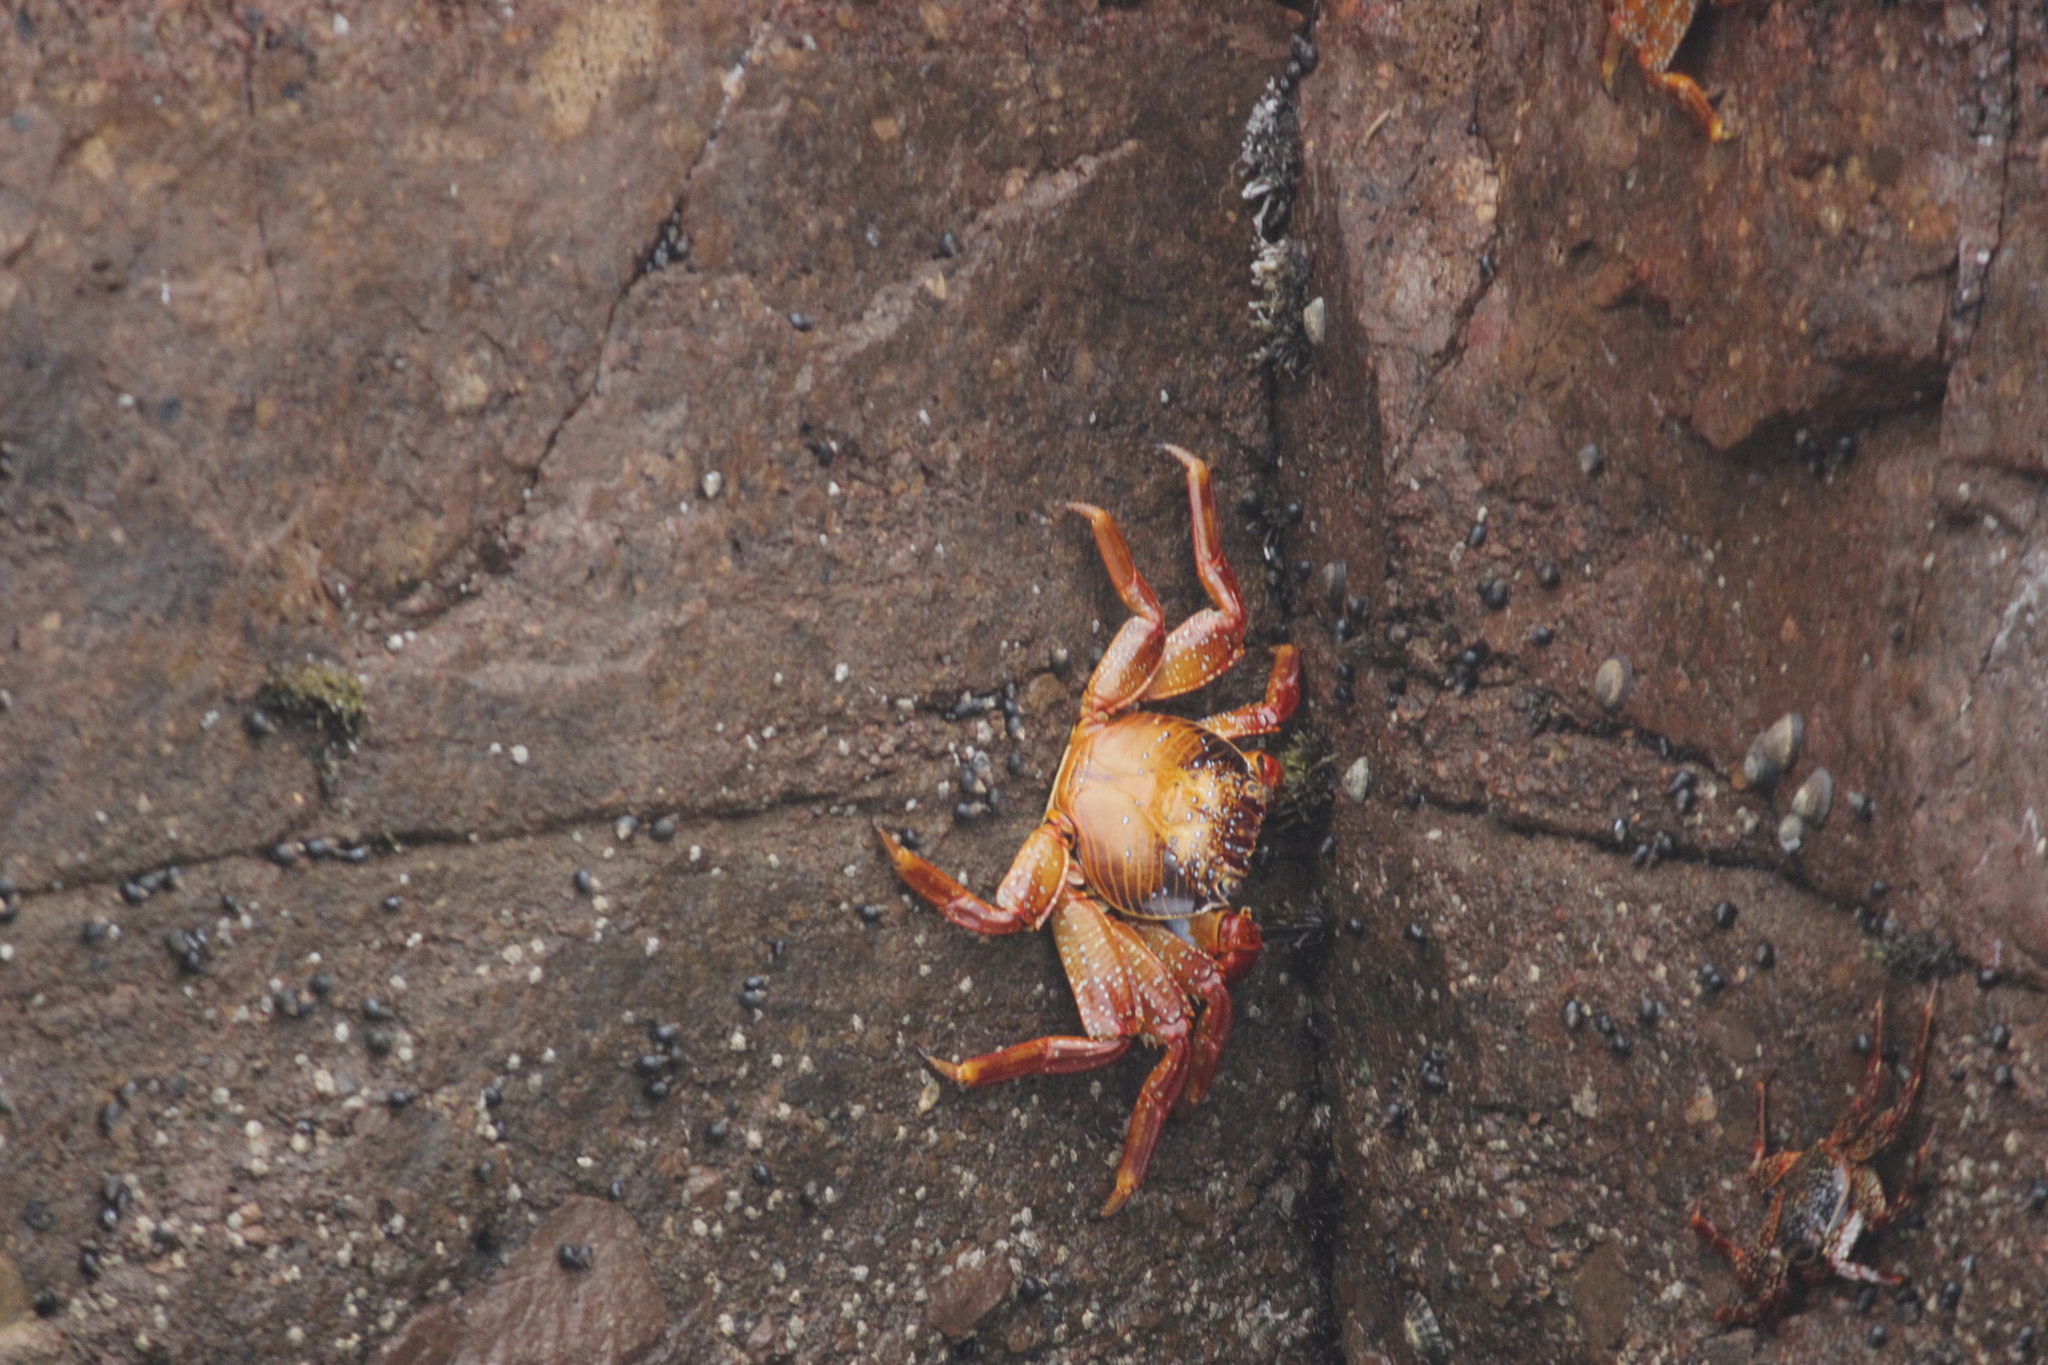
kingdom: Animalia
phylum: Arthropoda
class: Malacostraca
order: Decapoda
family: Grapsidae
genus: Grapsus
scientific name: Grapsus grapsus
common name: Sally lightfoot
